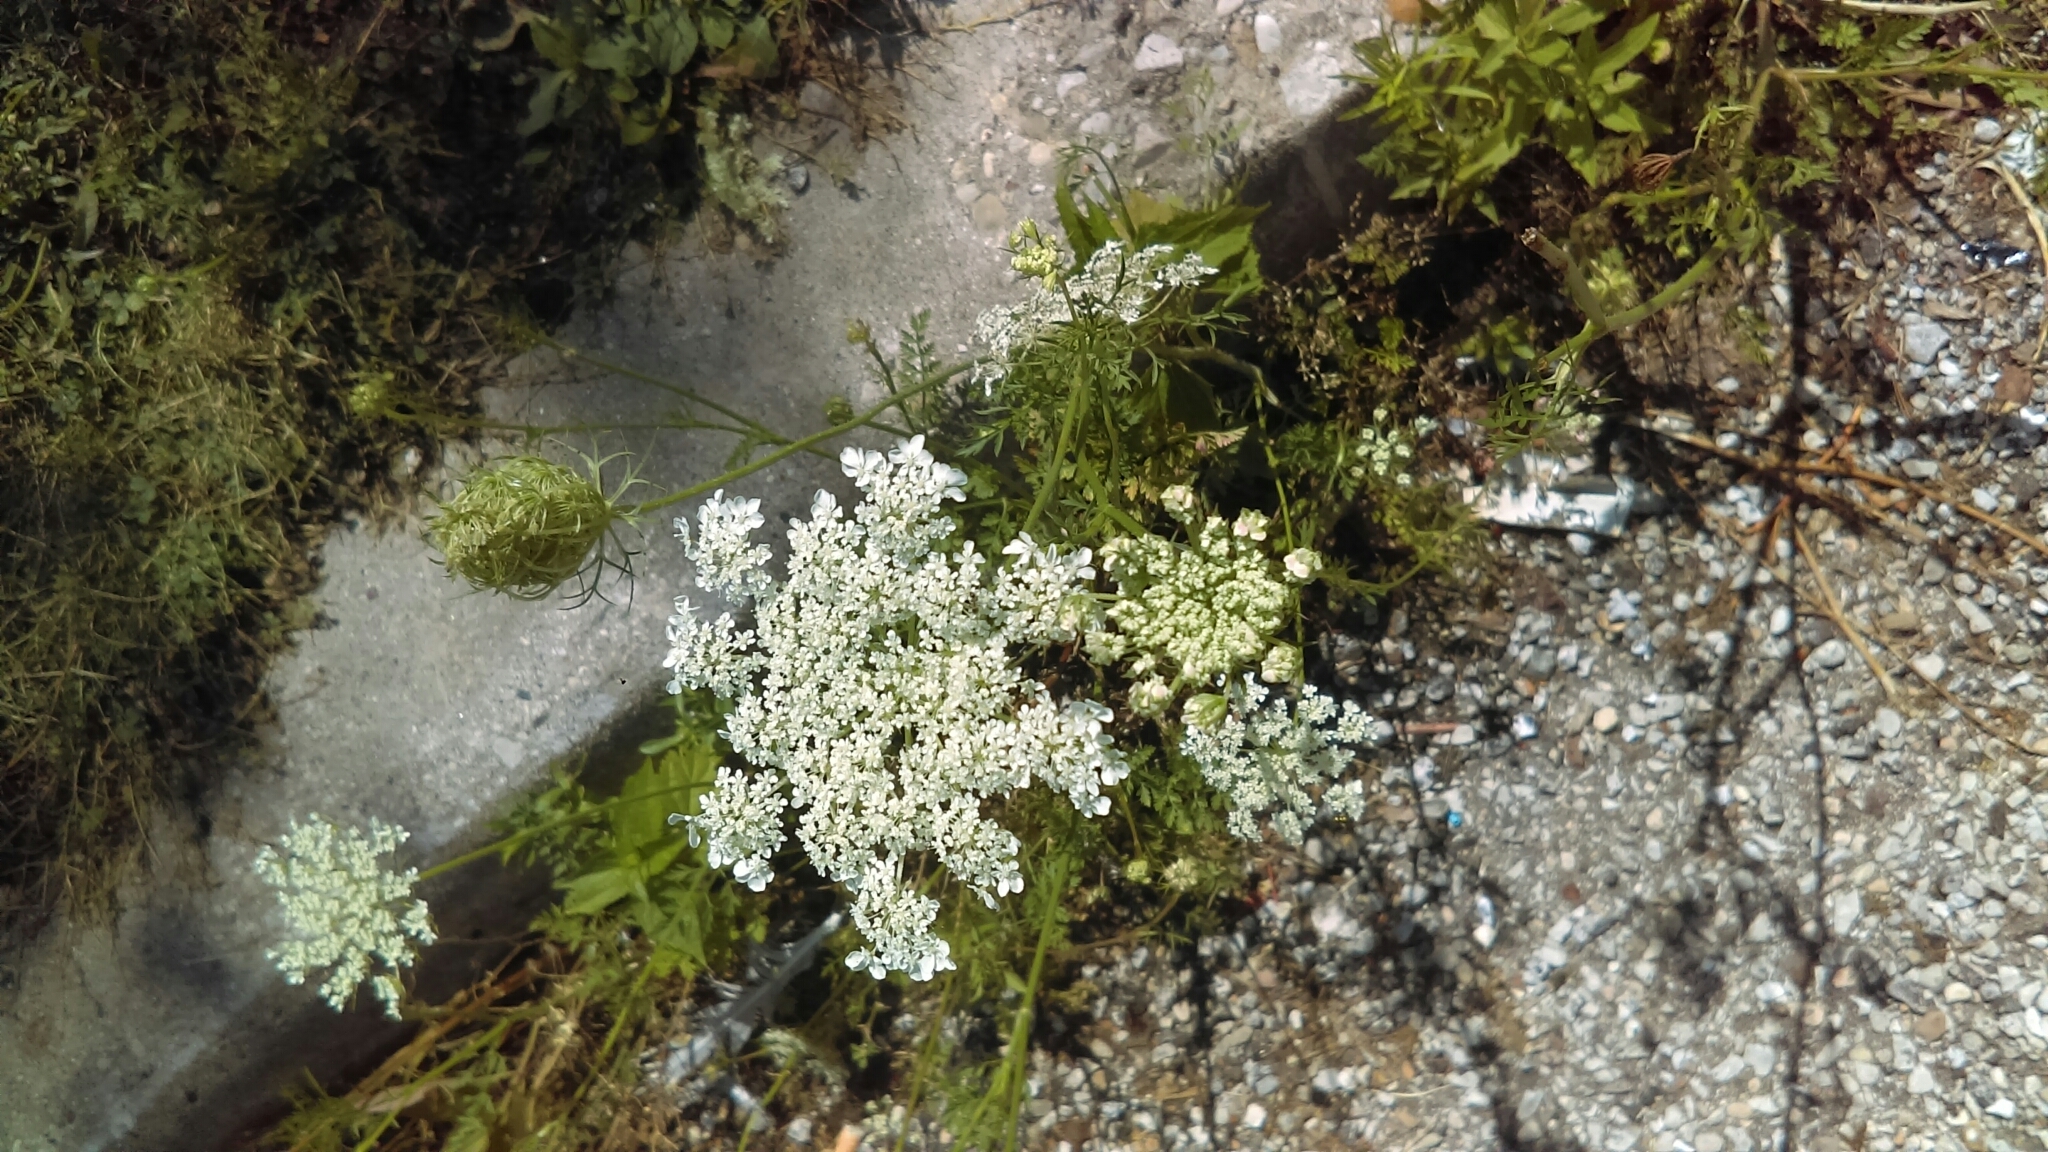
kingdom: Plantae
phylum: Tracheophyta
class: Magnoliopsida
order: Apiales
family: Apiaceae
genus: Daucus
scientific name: Daucus carota
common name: Wild carrot
